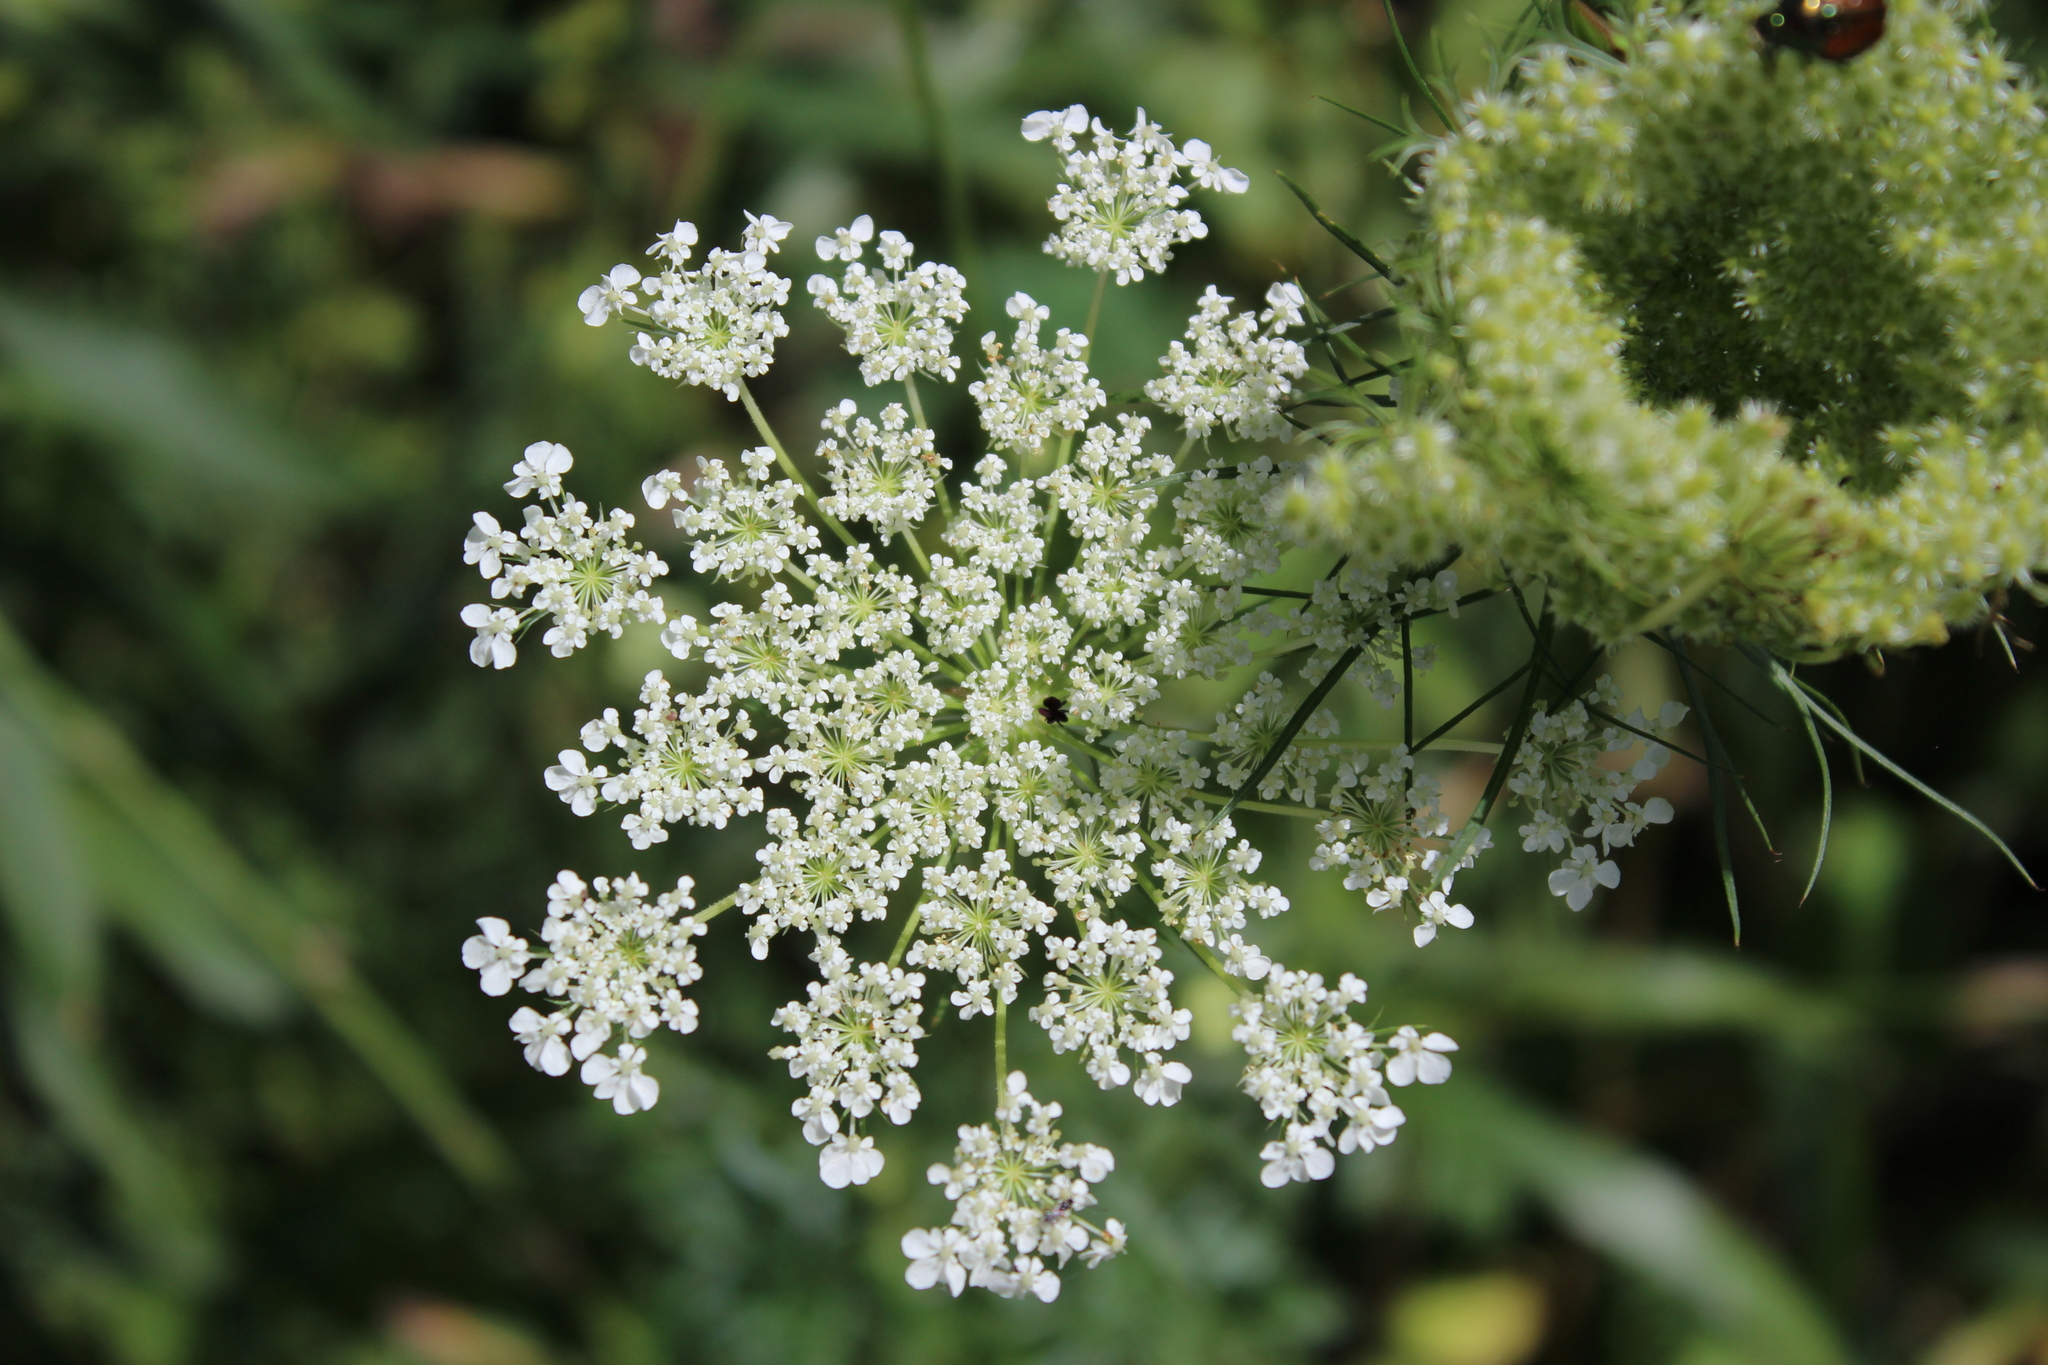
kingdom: Plantae
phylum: Tracheophyta
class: Magnoliopsida
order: Apiales
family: Apiaceae
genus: Daucus
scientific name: Daucus carota
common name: Wild carrot
